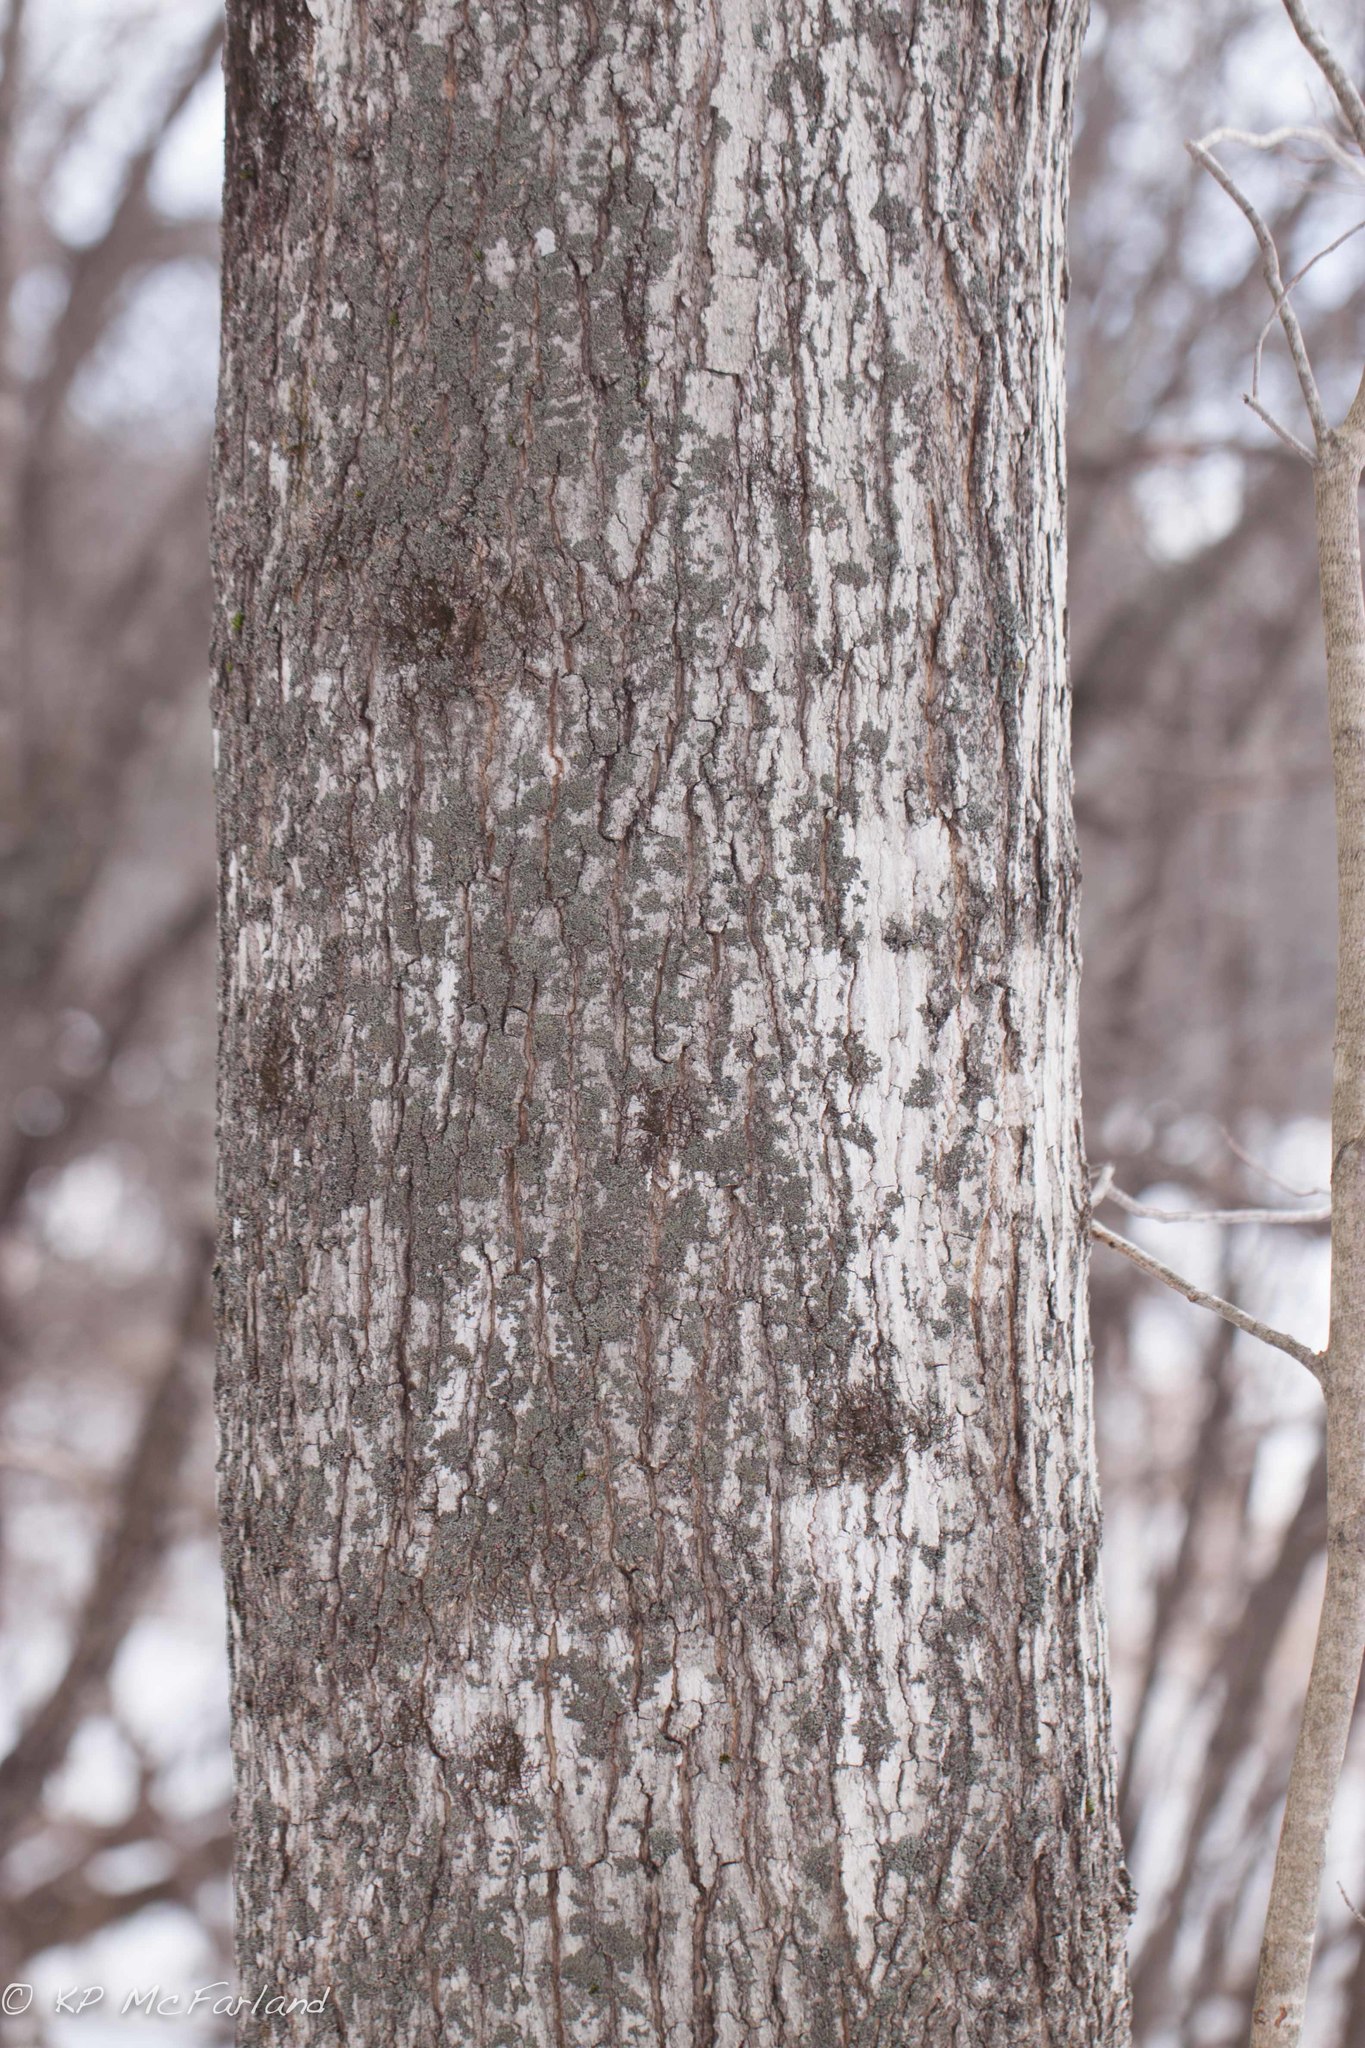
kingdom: Plantae
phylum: Tracheophyta
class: Magnoliopsida
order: Sapindales
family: Sapindaceae
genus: Acer
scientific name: Acer saccharum
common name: Sugar maple
